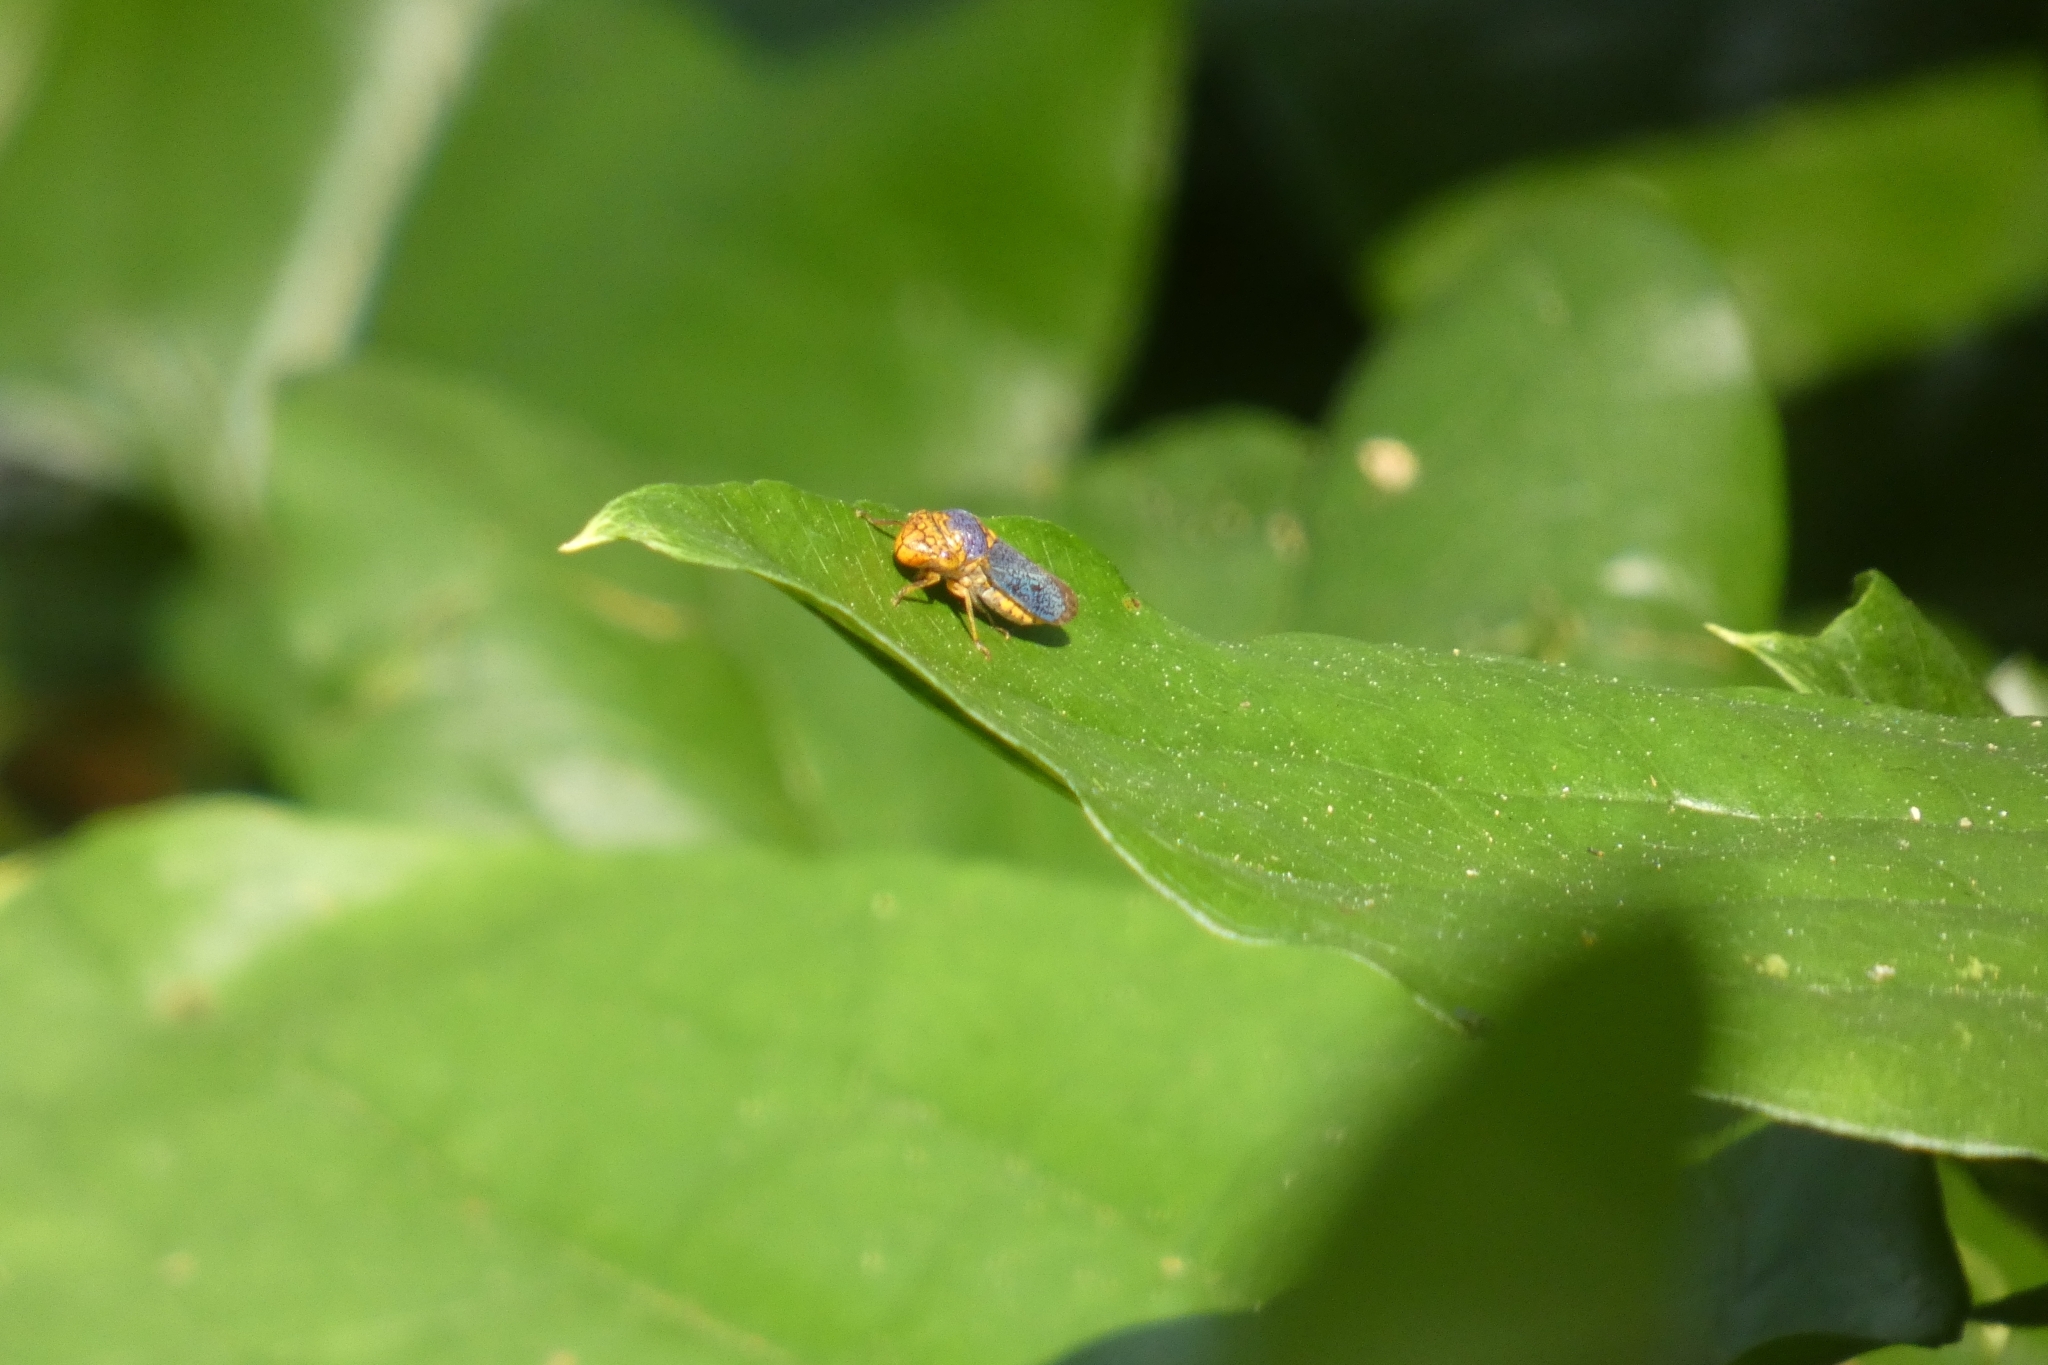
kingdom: Animalia
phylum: Arthropoda
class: Insecta
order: Hemiptera
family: Cicadellidae
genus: Oncometopia
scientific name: Oncometopia orbona
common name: Broad-headed sharpshooter
